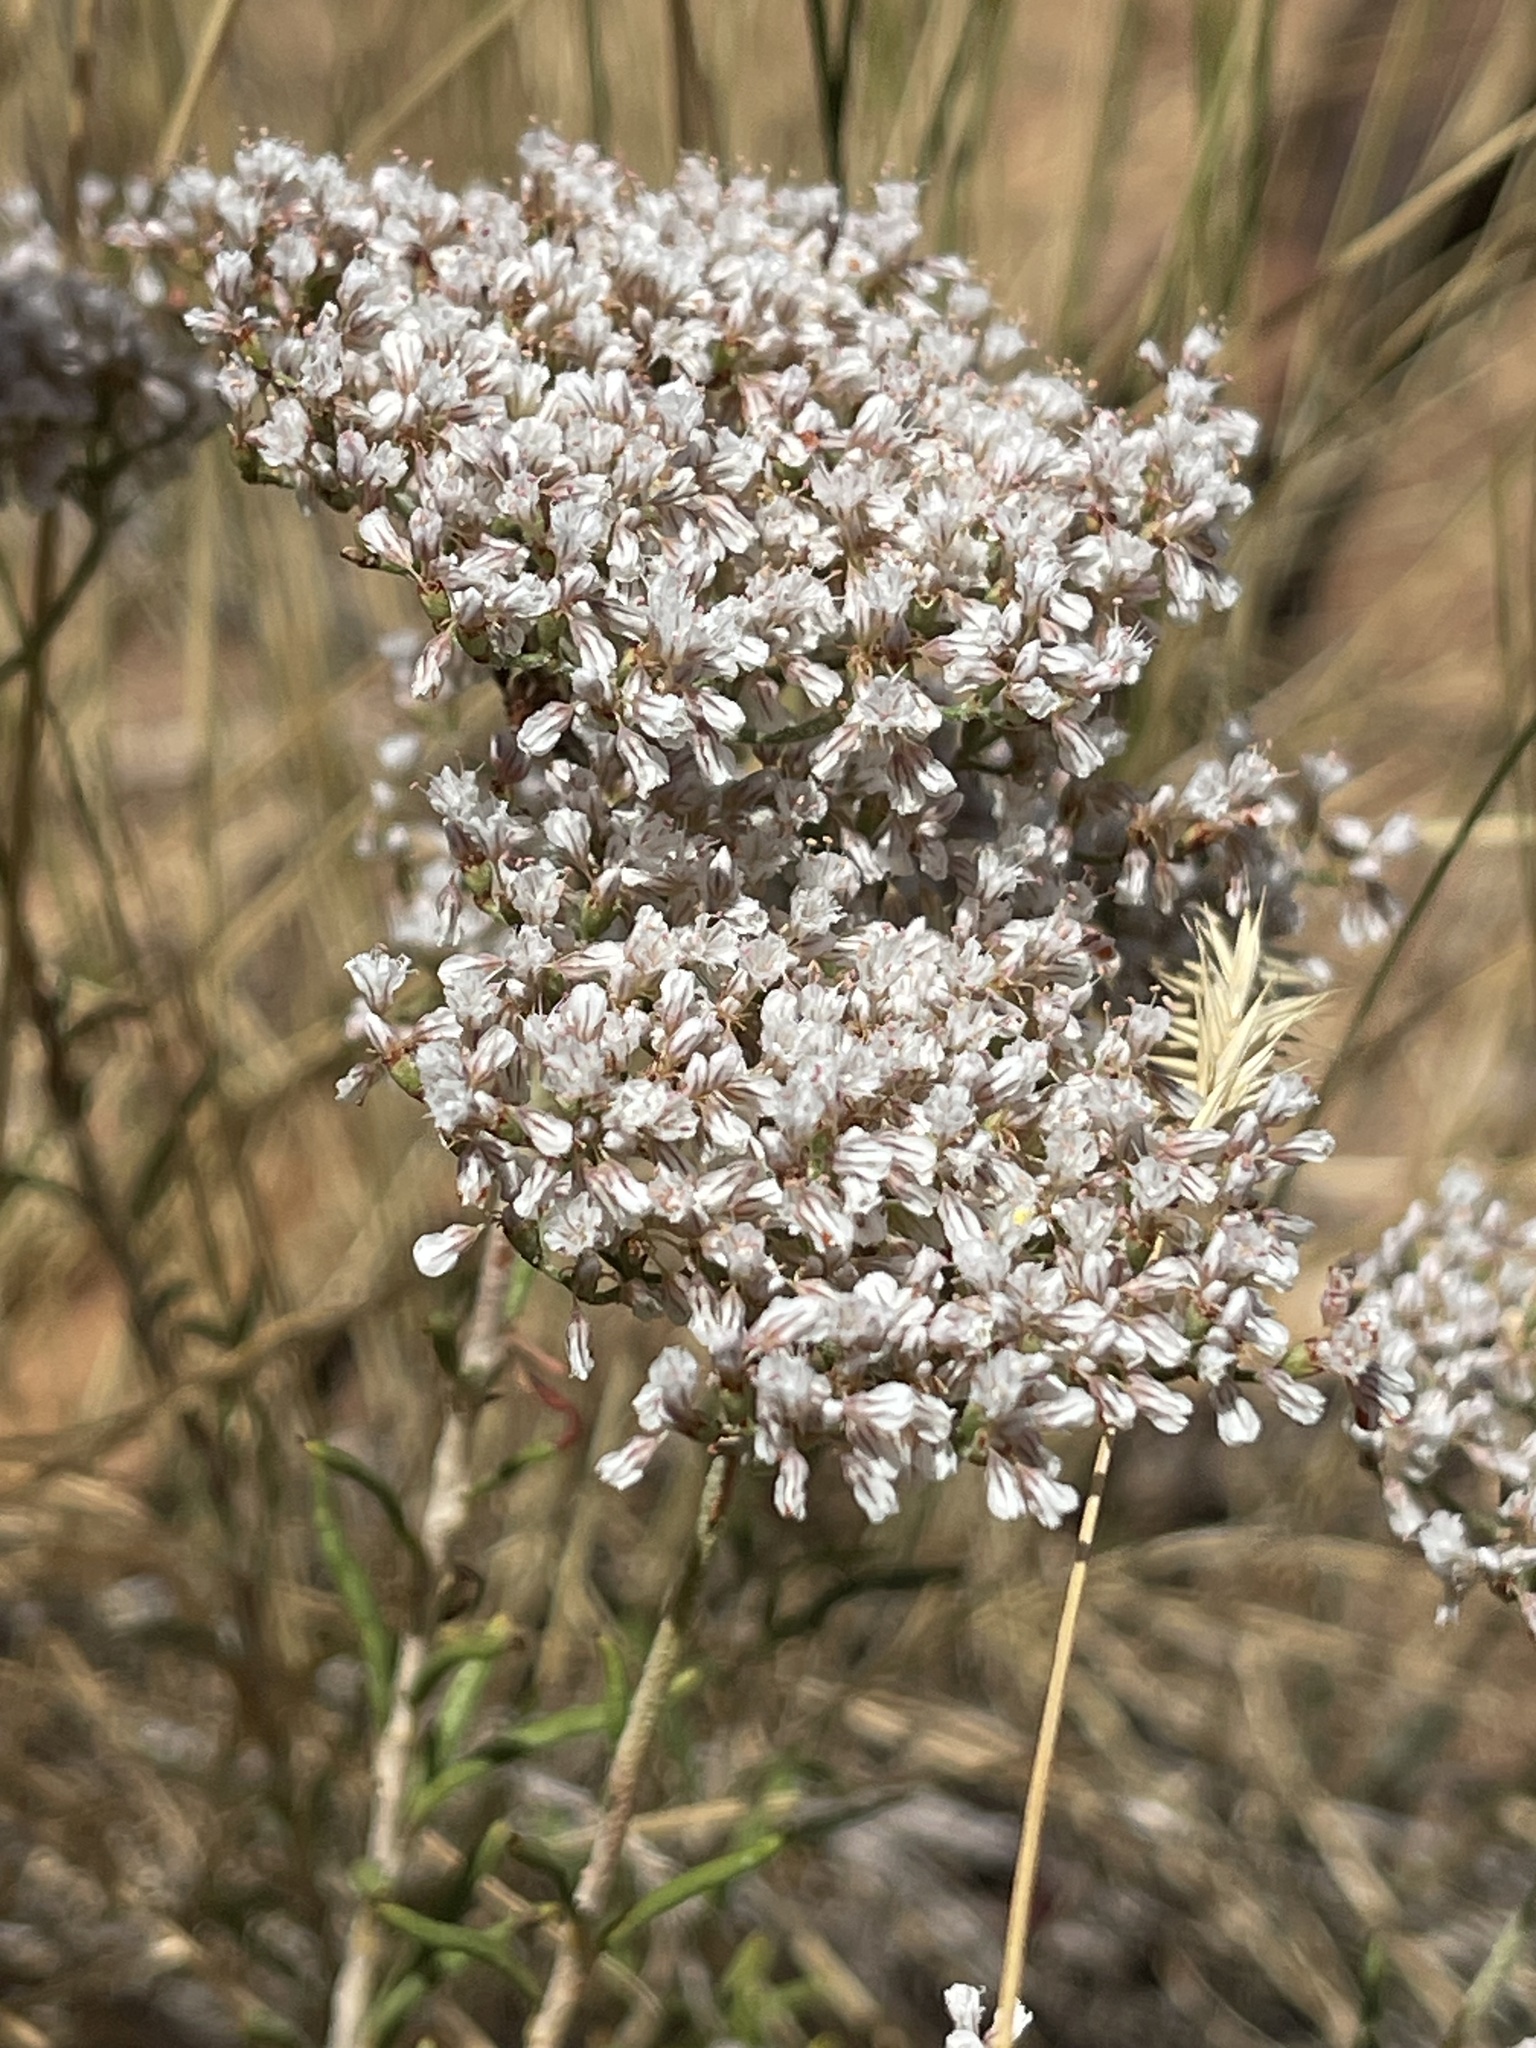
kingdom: Plantae
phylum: Tracheophyta
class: Magnoliopsida
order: Caryophyllales
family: Polygonaceae
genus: Eriogonum
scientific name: Eriogonum microtheca
